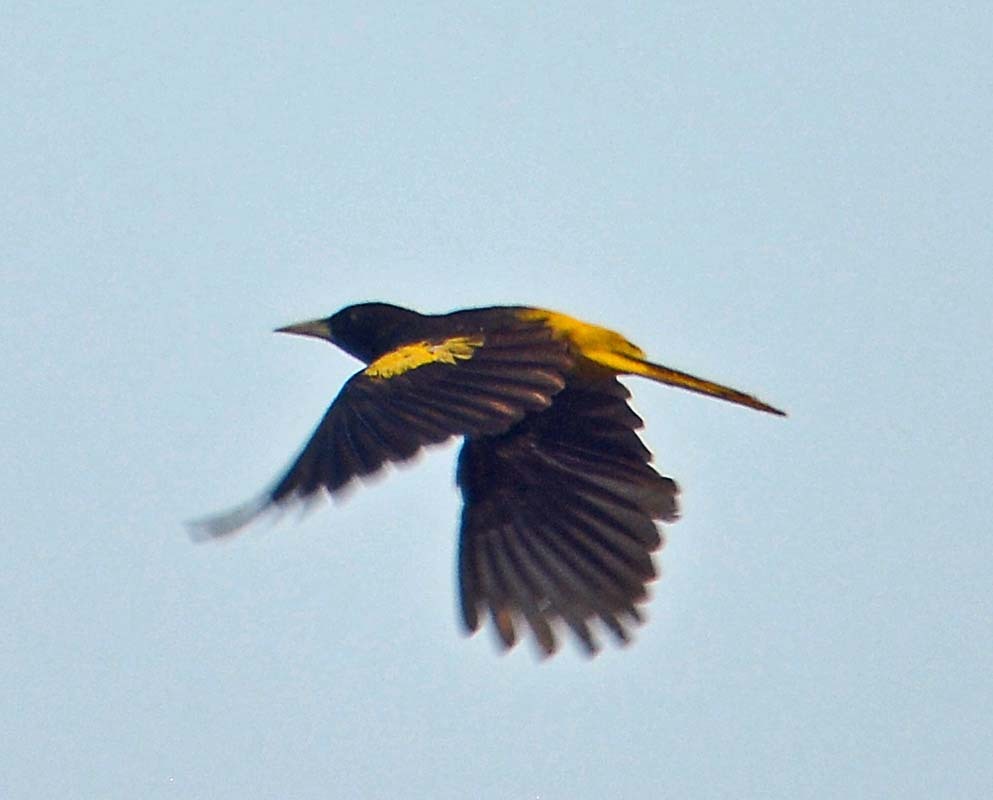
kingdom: Animalia
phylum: Chordata
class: Aves
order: Passeriformes
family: Icteridae
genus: Cacicus
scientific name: Cacicus melanicterus
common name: Yellow-winged cacique
